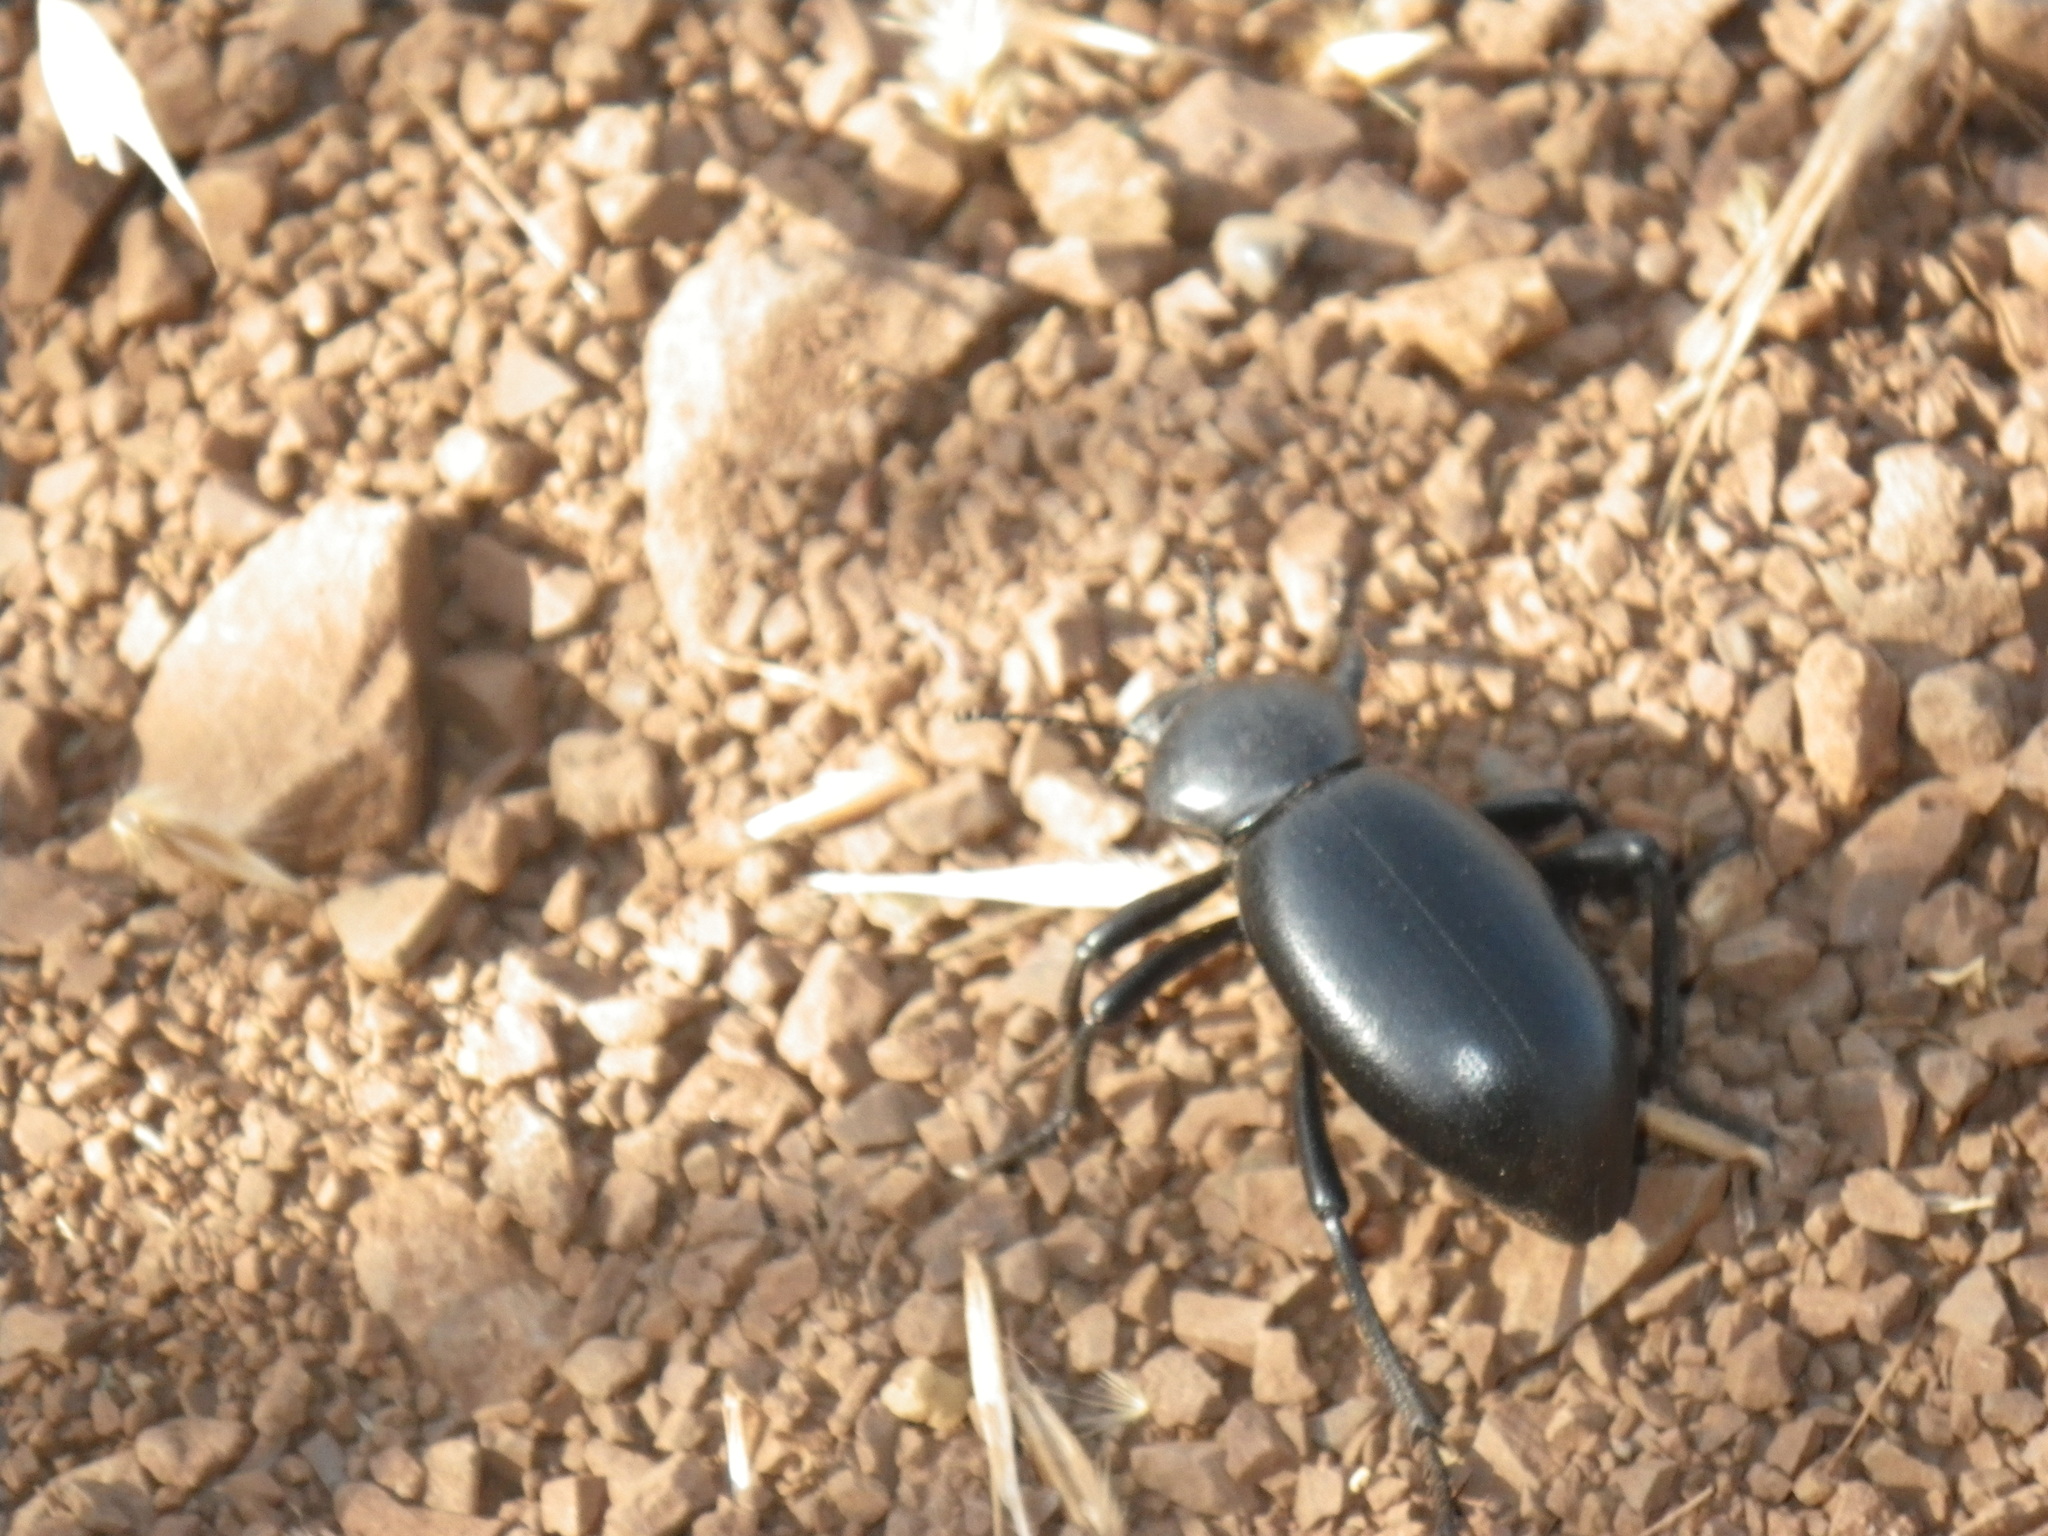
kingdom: Animalia
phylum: Arthropoda
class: Insecta
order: Coleoptera
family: Tenebrionidae
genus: Eleodes
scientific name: Eleodes grandicollis
